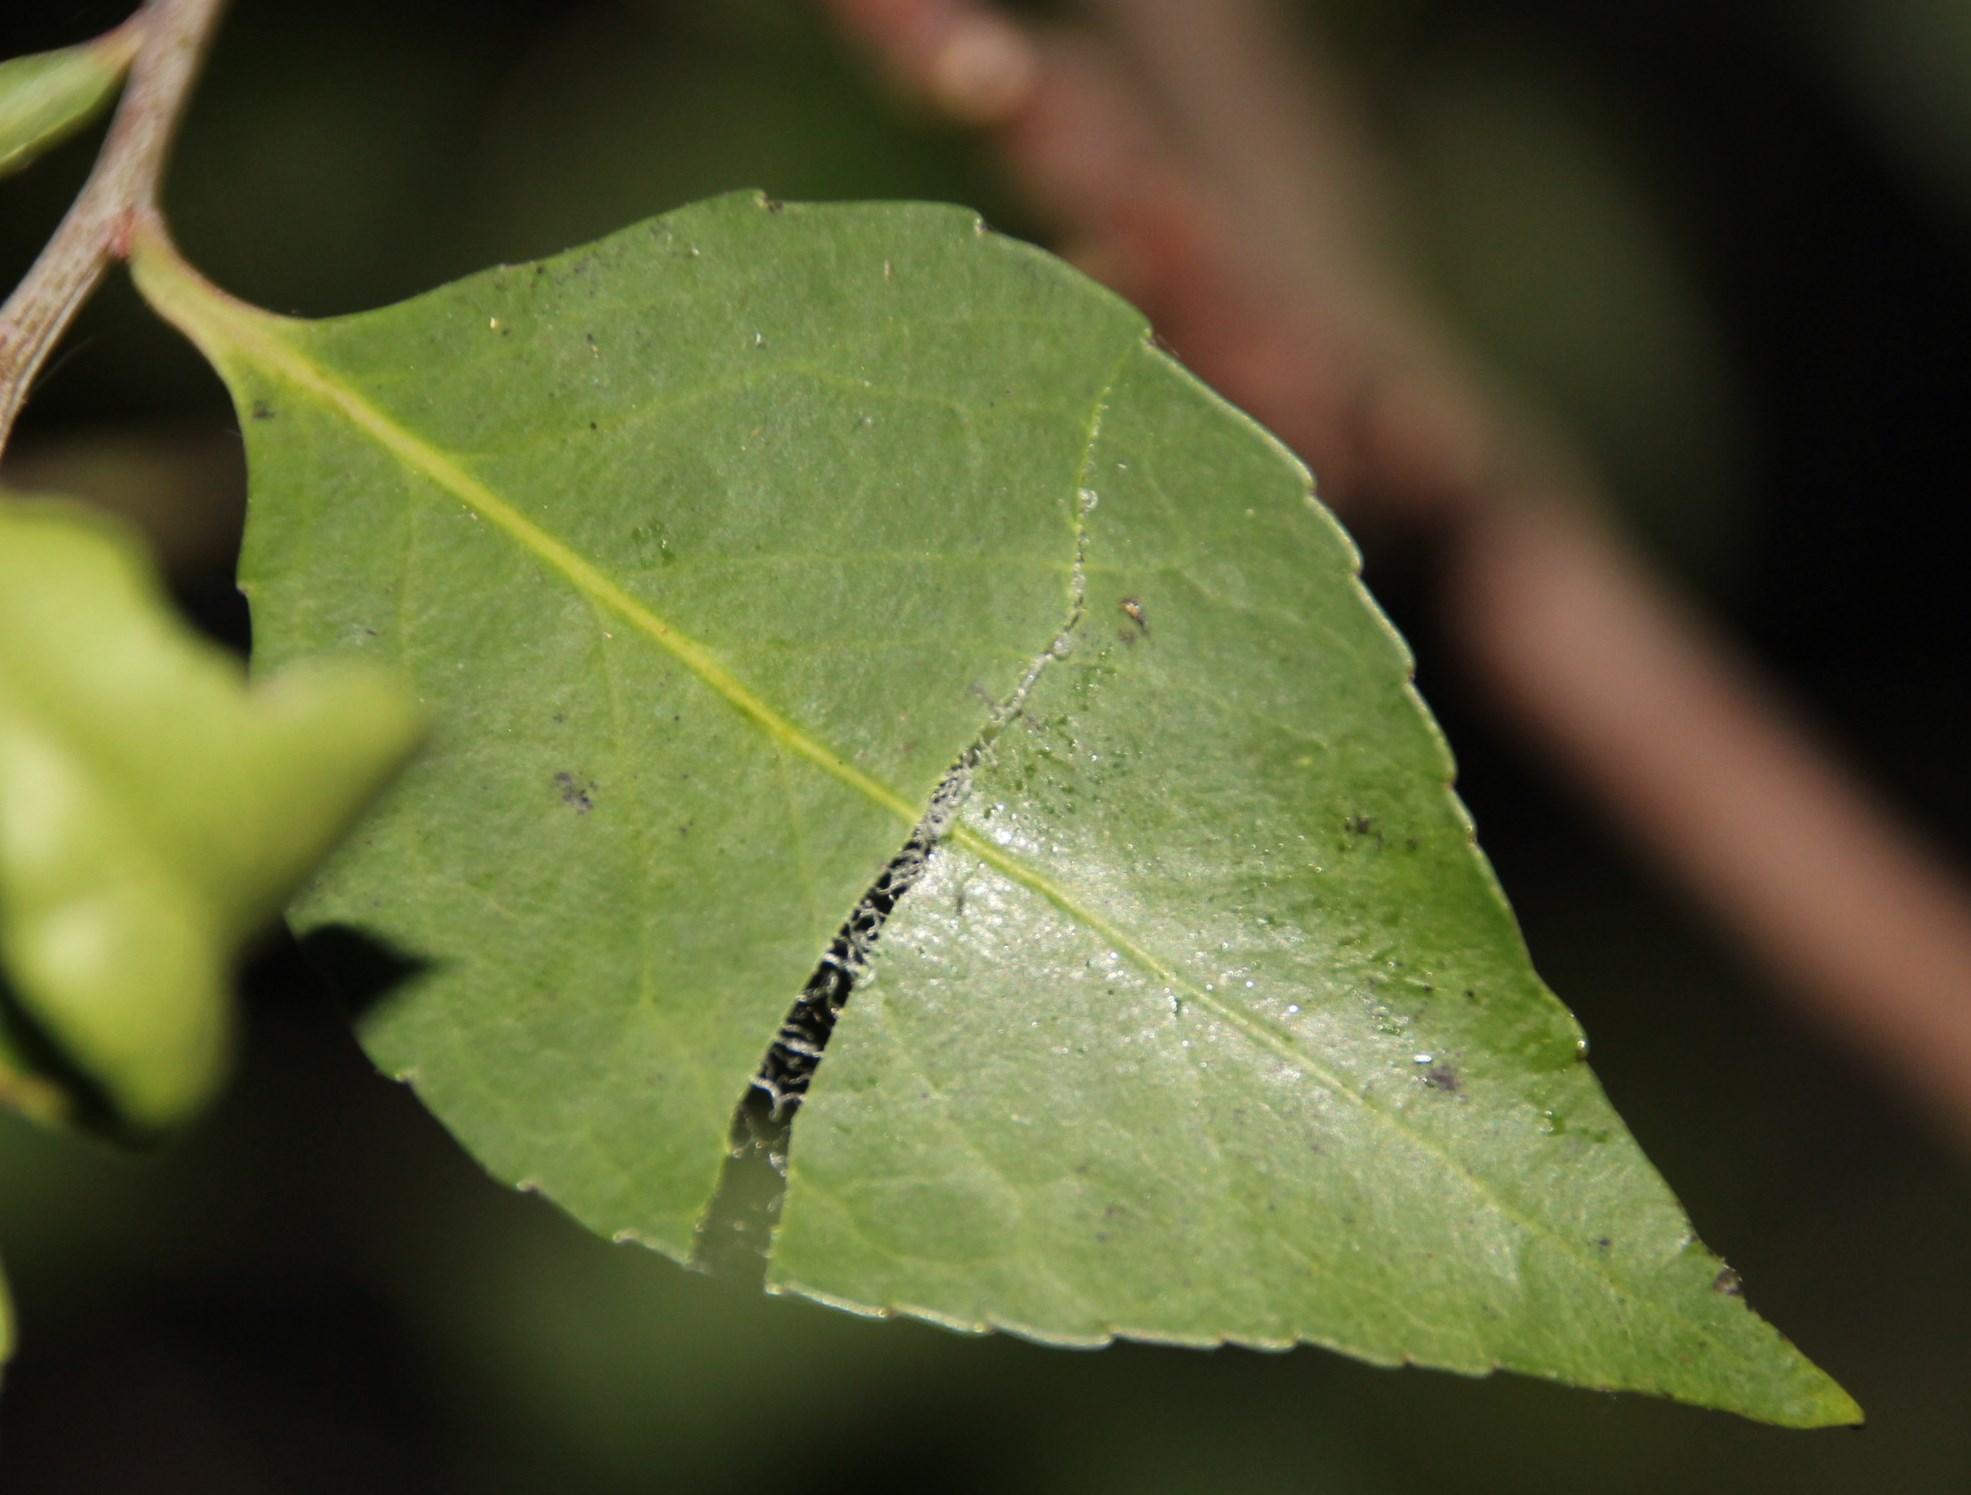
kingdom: Plantae
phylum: Tracheophyta
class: Magnoliopsida
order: Celastrales
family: Celastraceae
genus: Gymnosporia
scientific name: Gymnosporia acuminata
